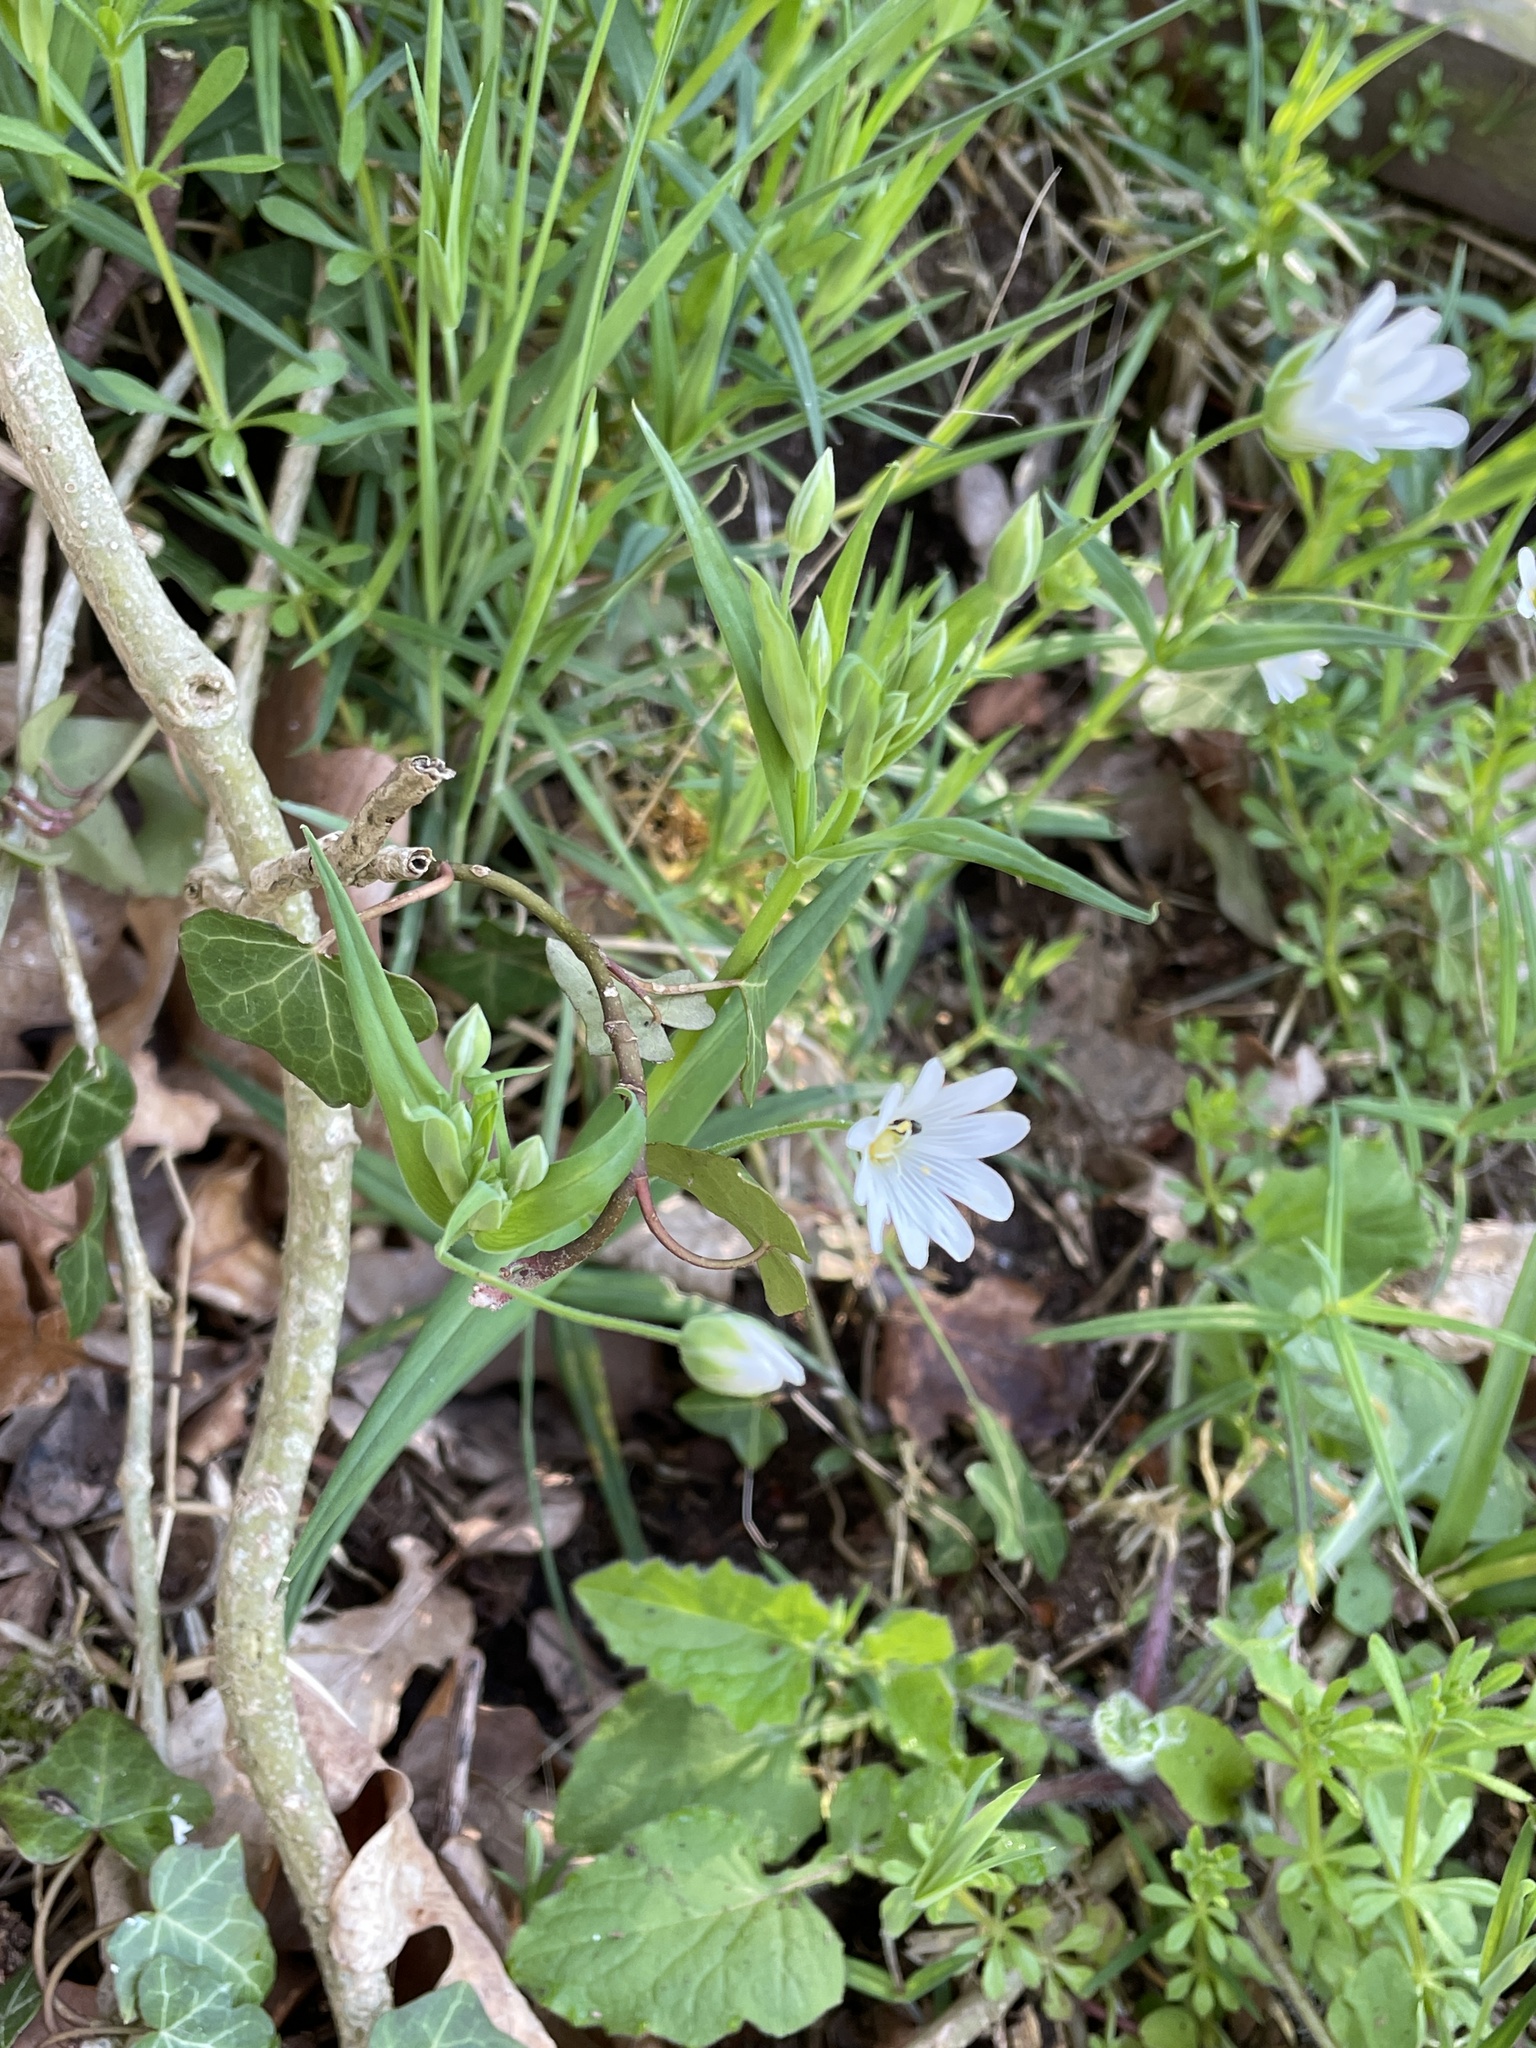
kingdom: Plantae
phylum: Tracheophyta
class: Magnoliopsida
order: Caryophyllales
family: Caryophyllaceae
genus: Rabelera
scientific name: Rabelera holostea
